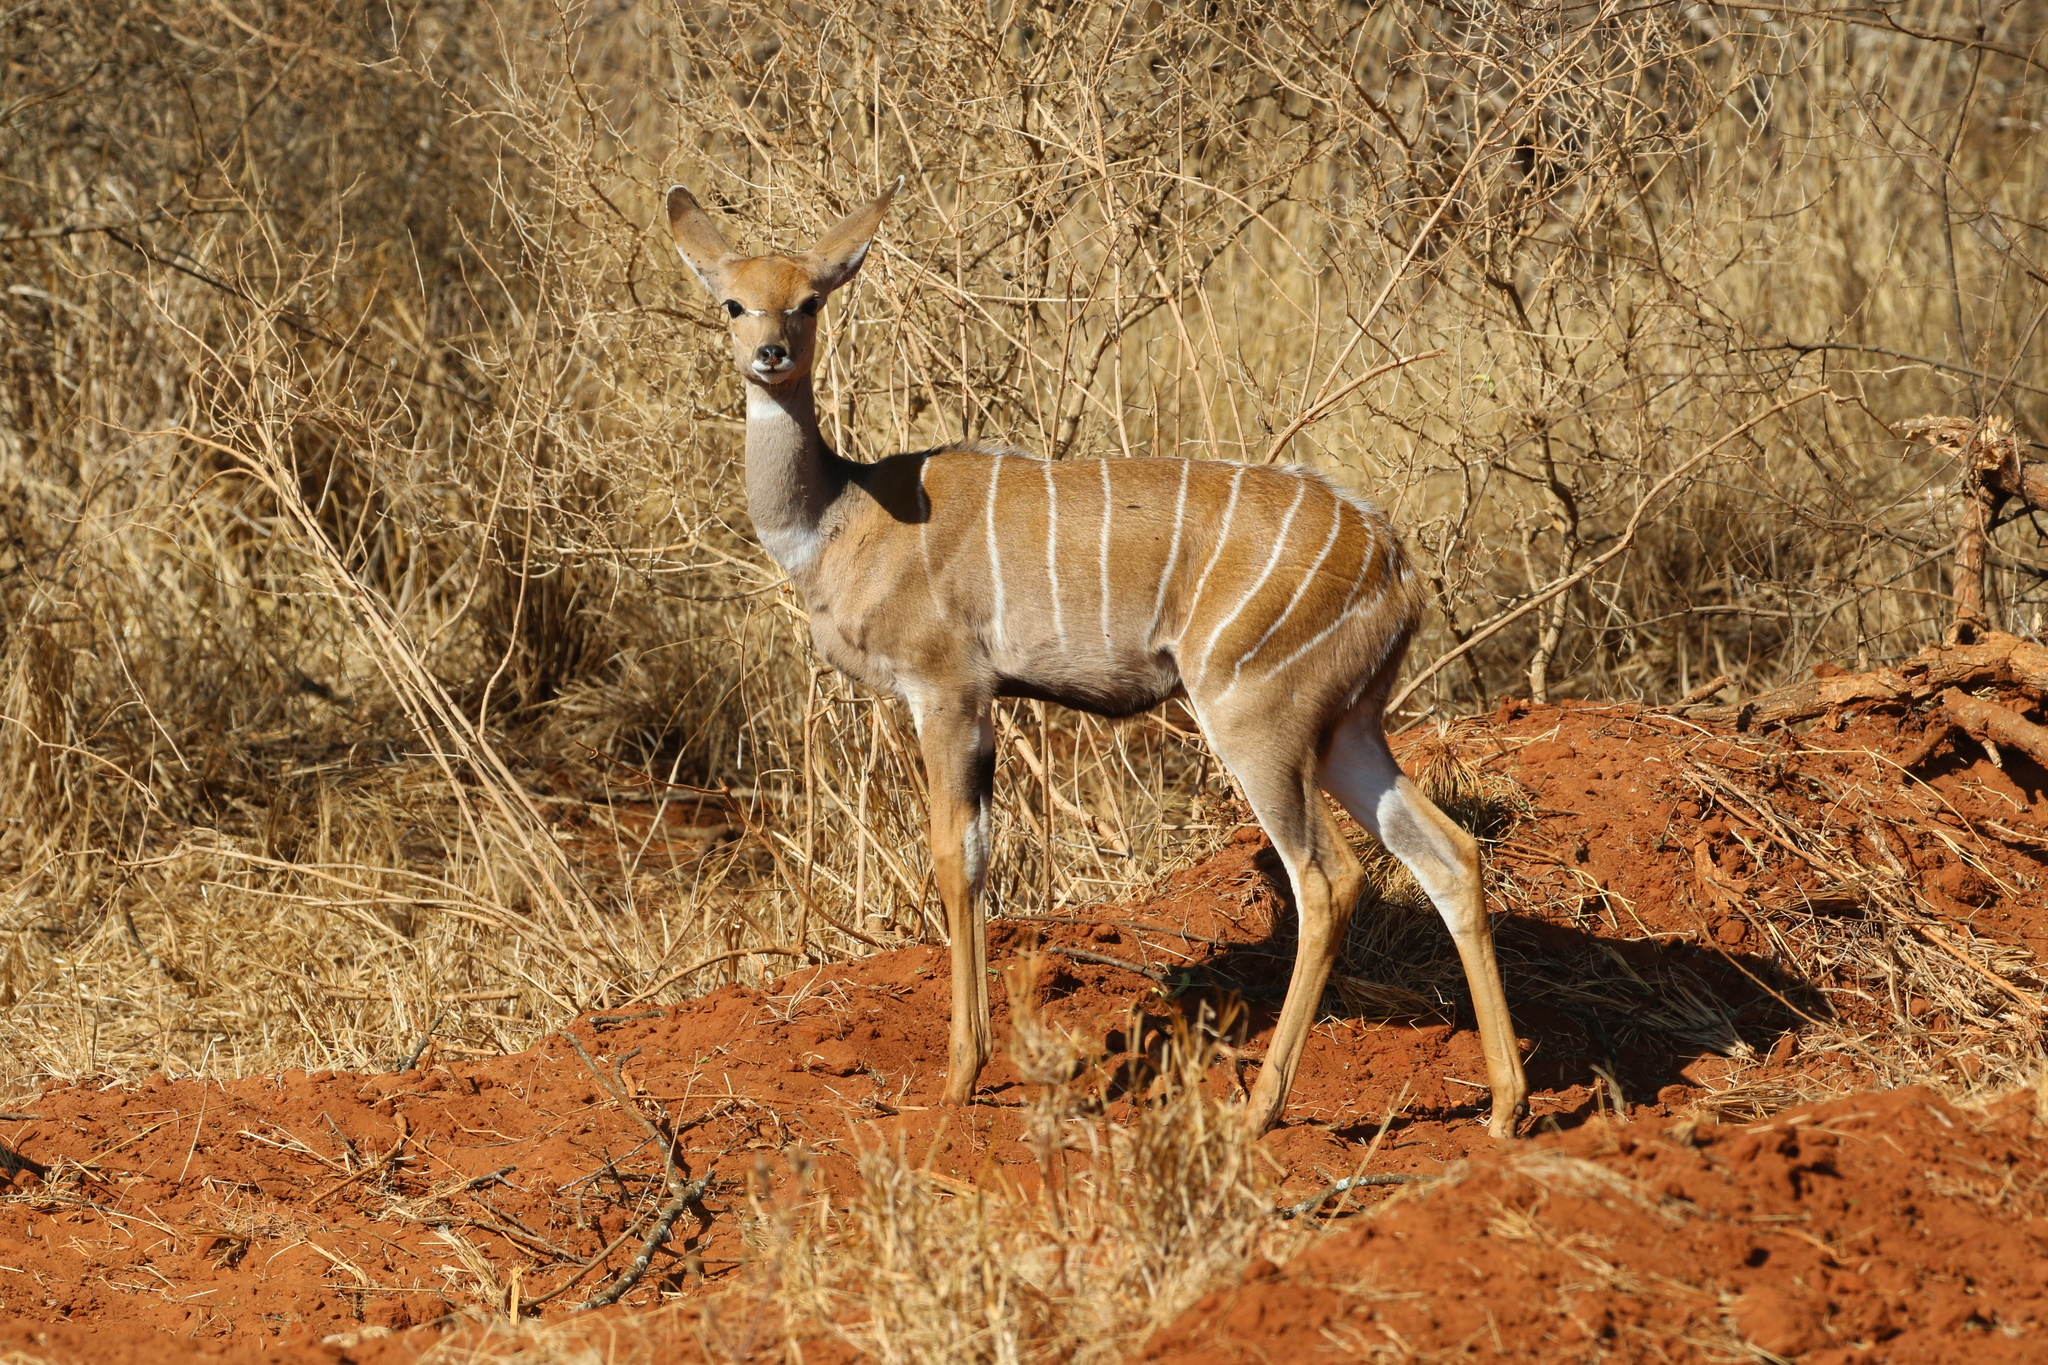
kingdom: Animalia
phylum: Chordata
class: Mammalia
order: Artiodactyla
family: Bovidae
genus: Tragelaphus
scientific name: Tragelaphus imberbis
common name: Lesser kudu
